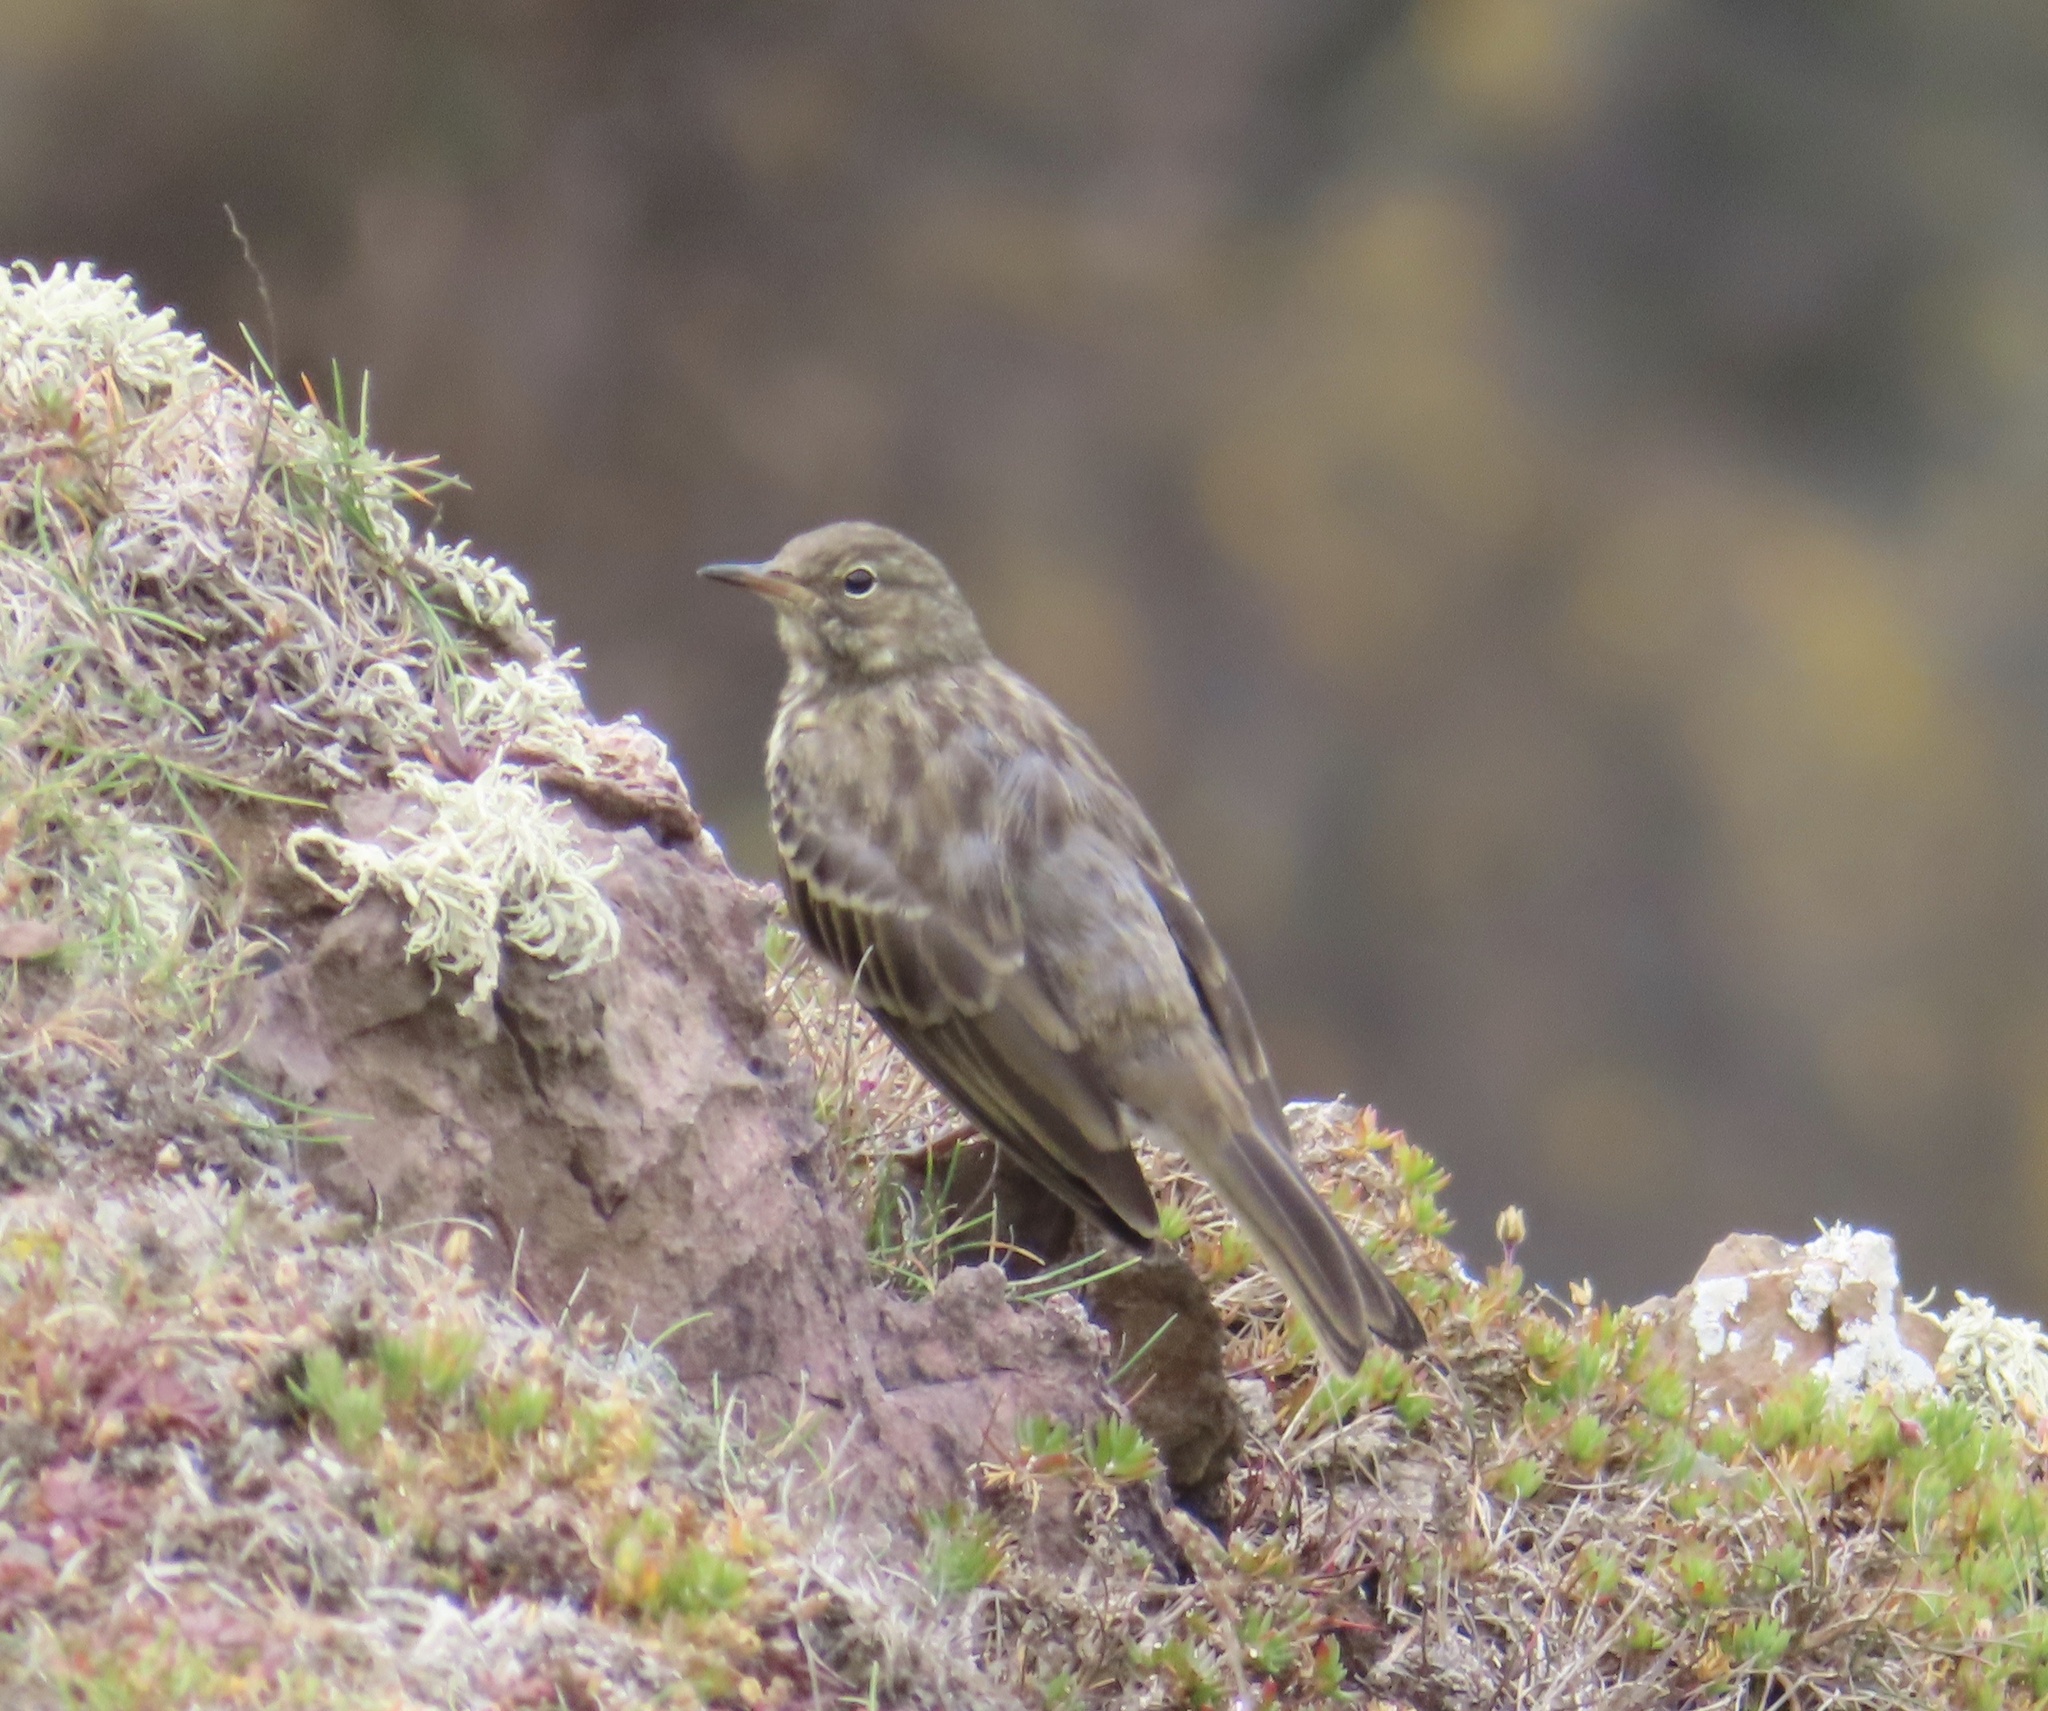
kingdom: Animalia
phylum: Chordata
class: Aves
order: Passeriformes
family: Motacillidae
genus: Anthus
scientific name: Anthus petrosus
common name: Eurasian rock pipit
